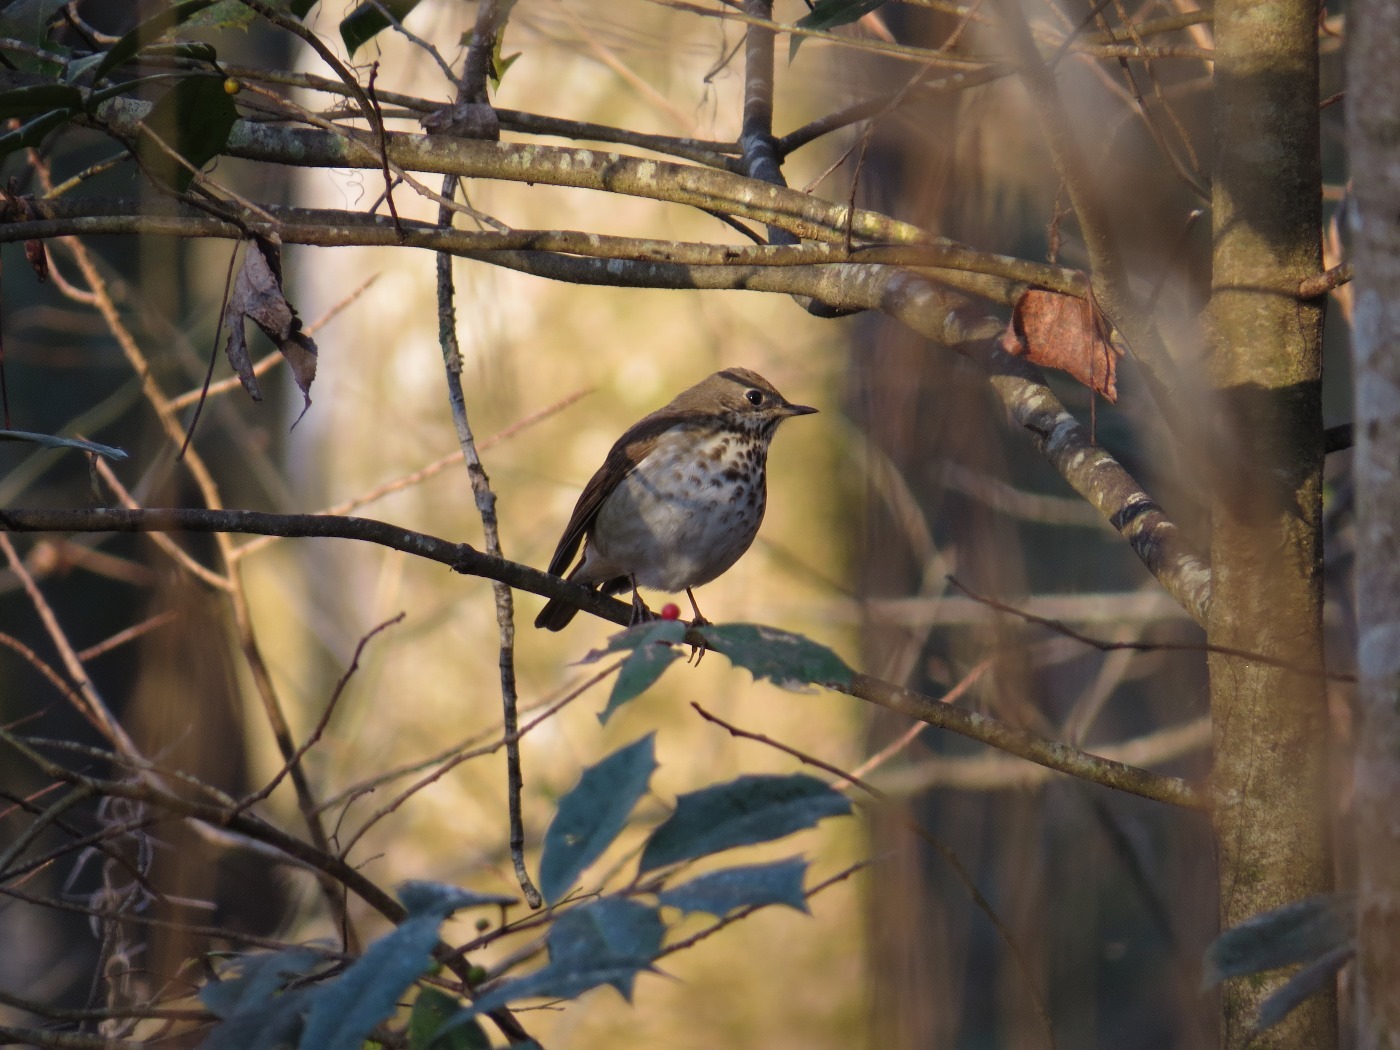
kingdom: Animalia
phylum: Chordata
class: Aves
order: Passeriformes
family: Turdidae
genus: Catharus
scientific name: Catharus guttatus
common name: Hermit thrush
